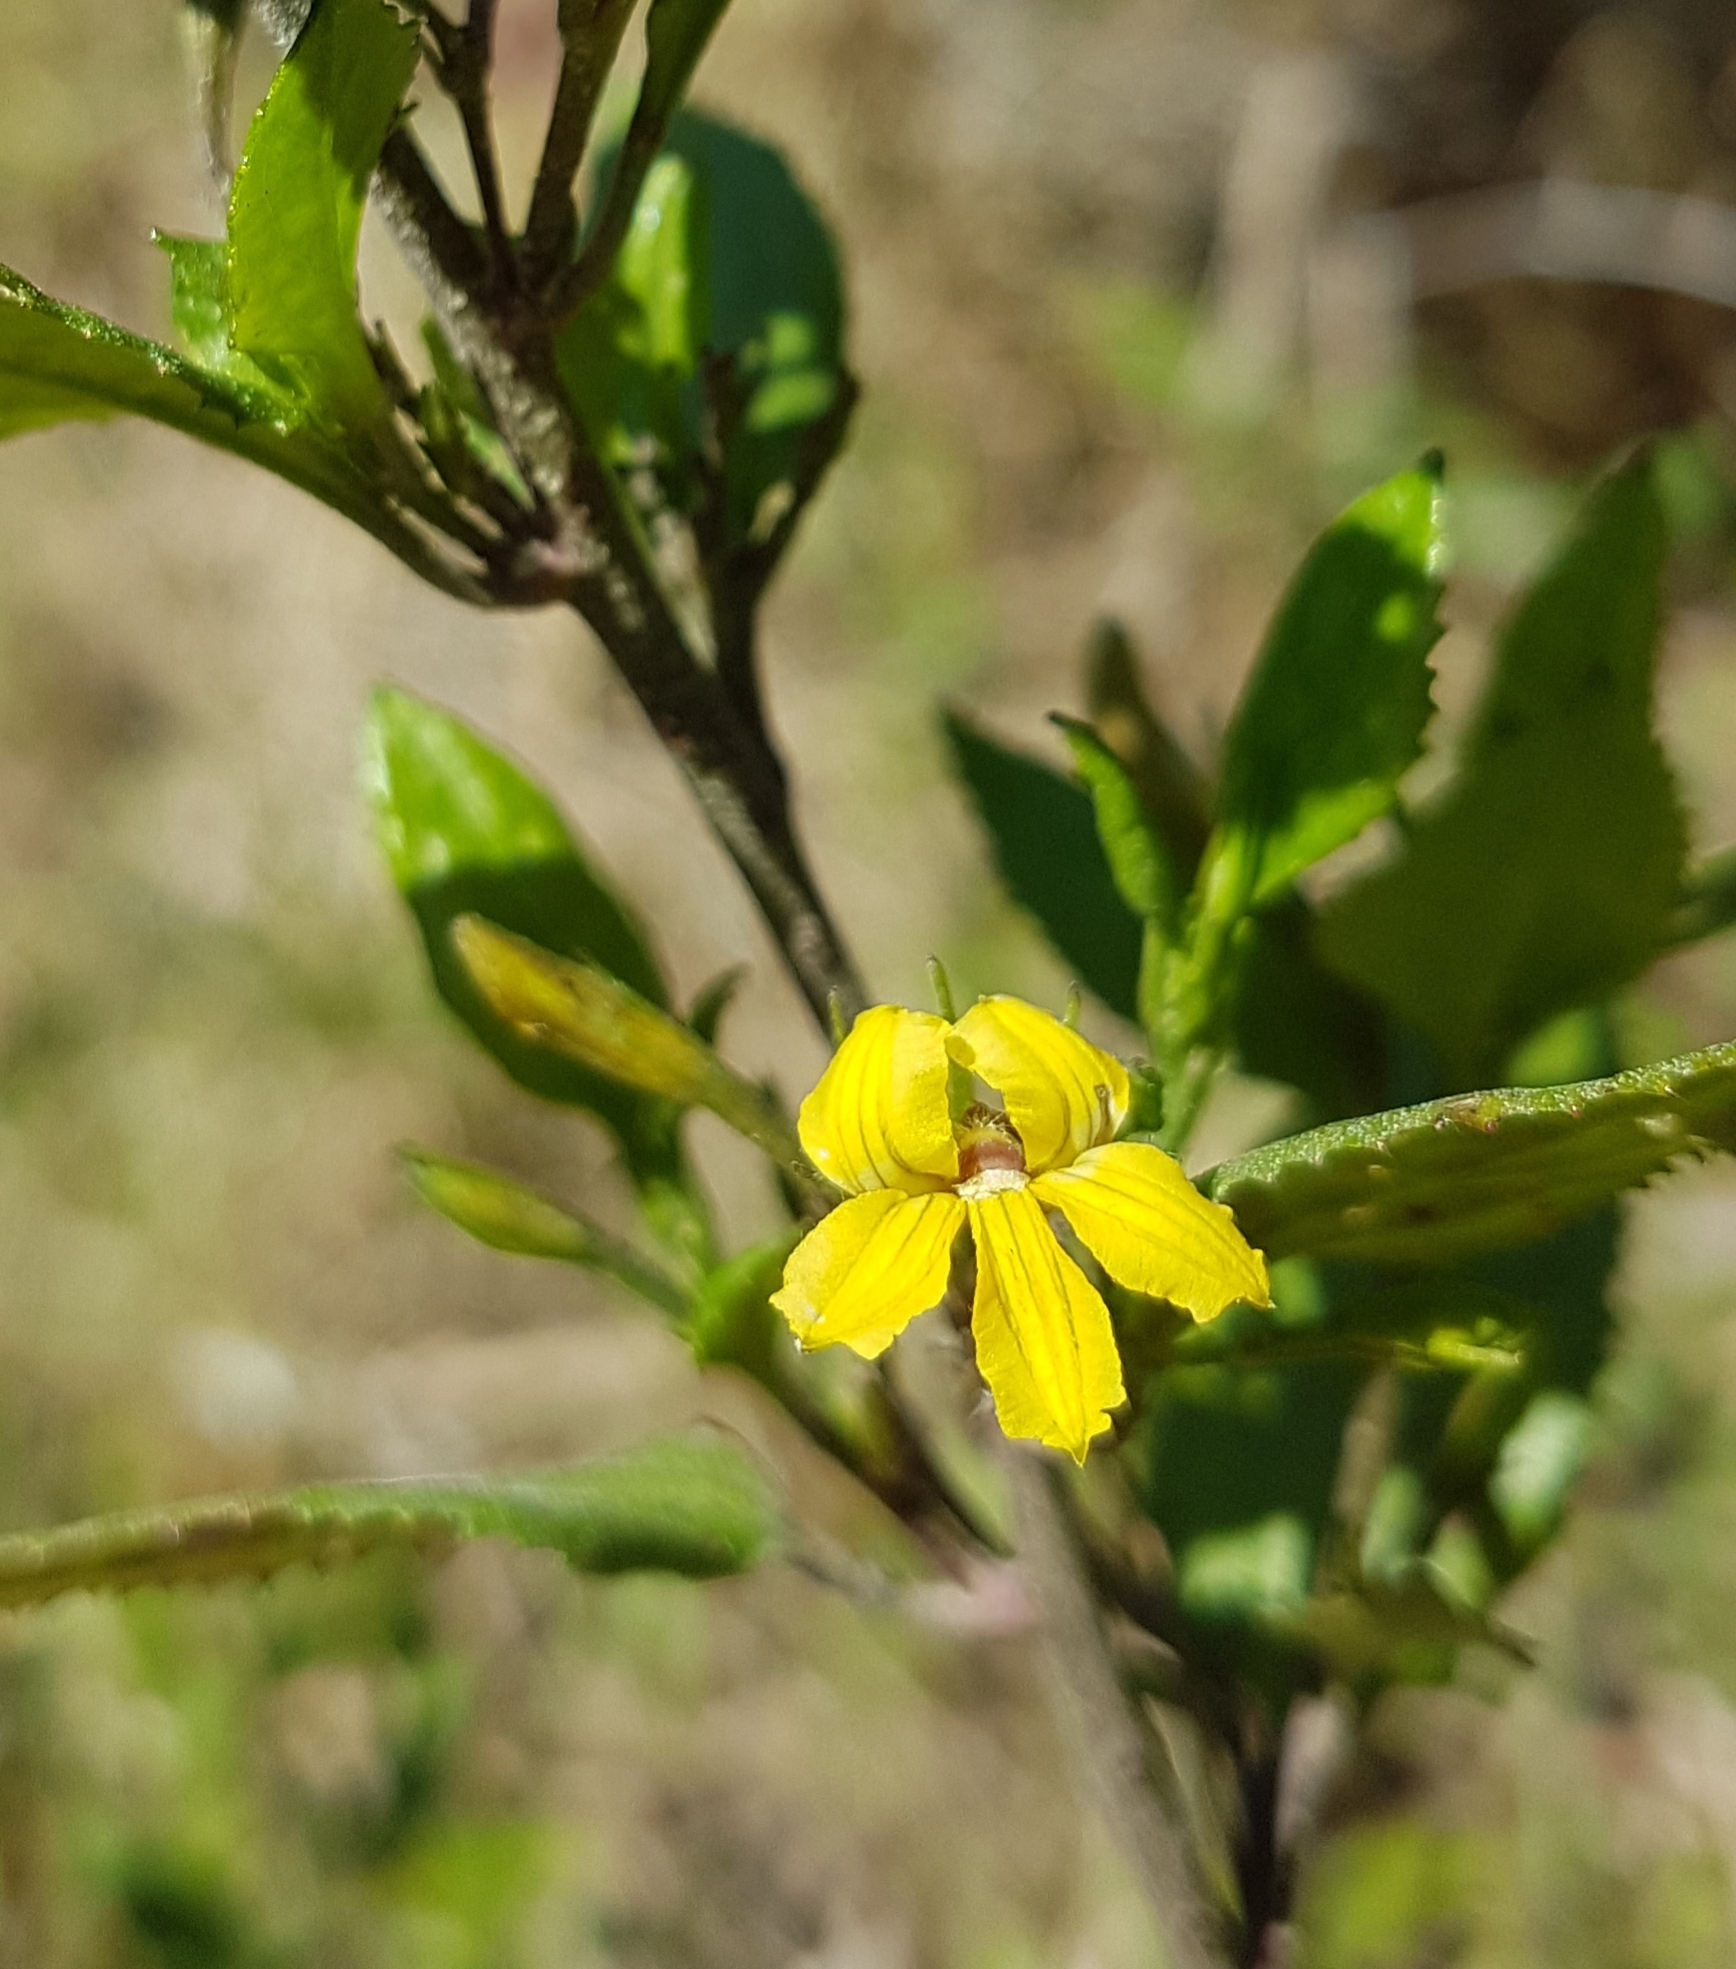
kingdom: Plantae
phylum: Tracheophyta
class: Magnoliopsida
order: Asterales
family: Goodeniaceae
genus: Goodenia
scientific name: Goodenia ovata
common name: Hop goodenia
